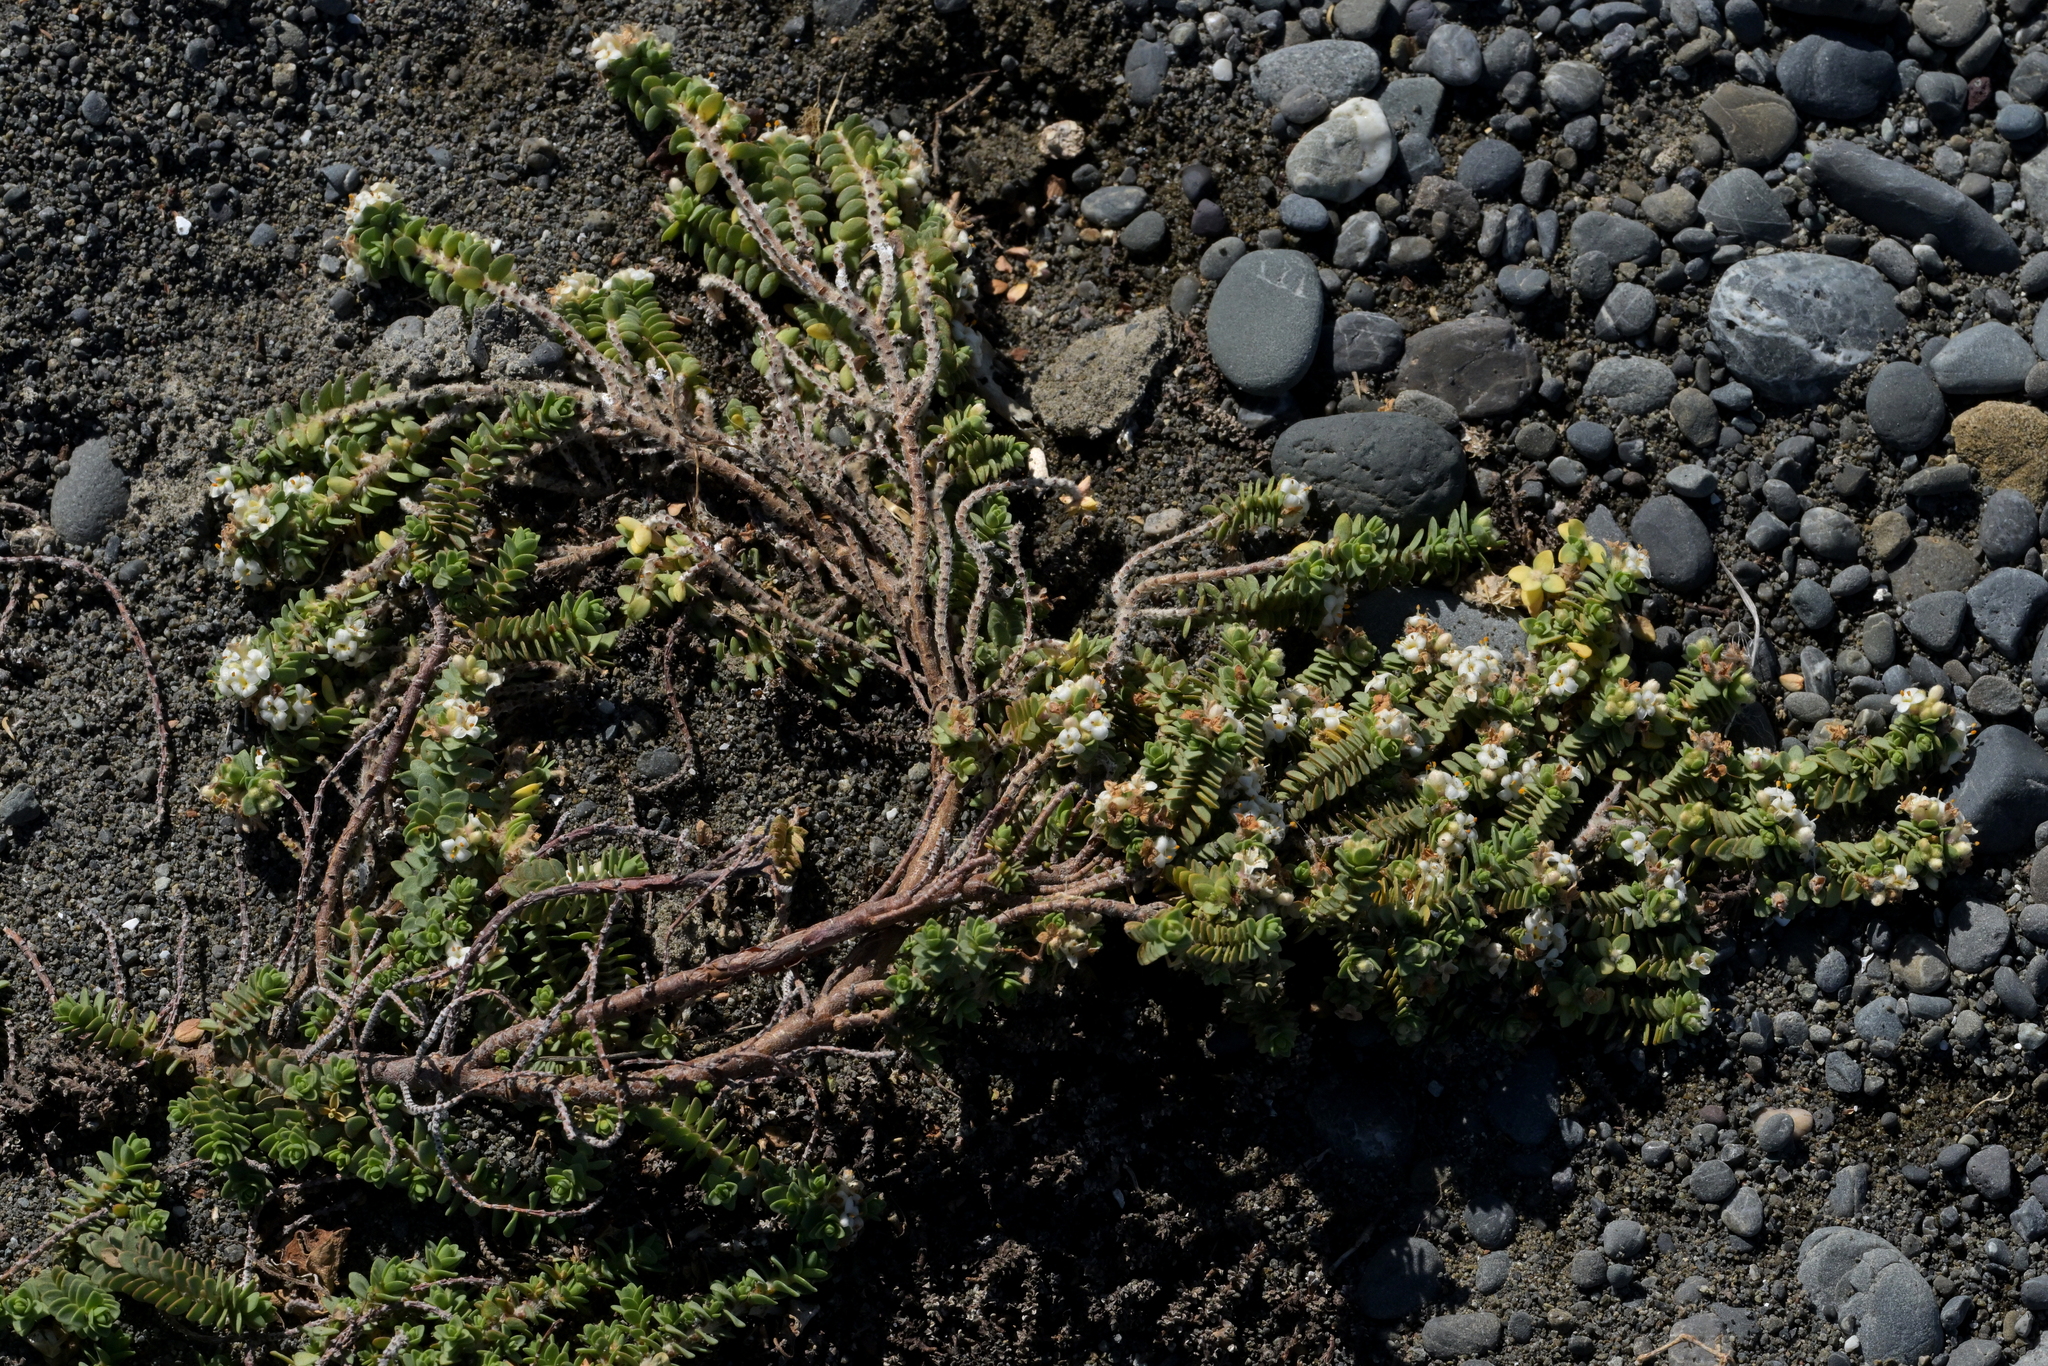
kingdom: Plantae
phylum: Tracheophyta
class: Magnoliopsida
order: Malvales
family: Thymelaeaceae
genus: Pimelea
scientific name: Pimelea carnosa
